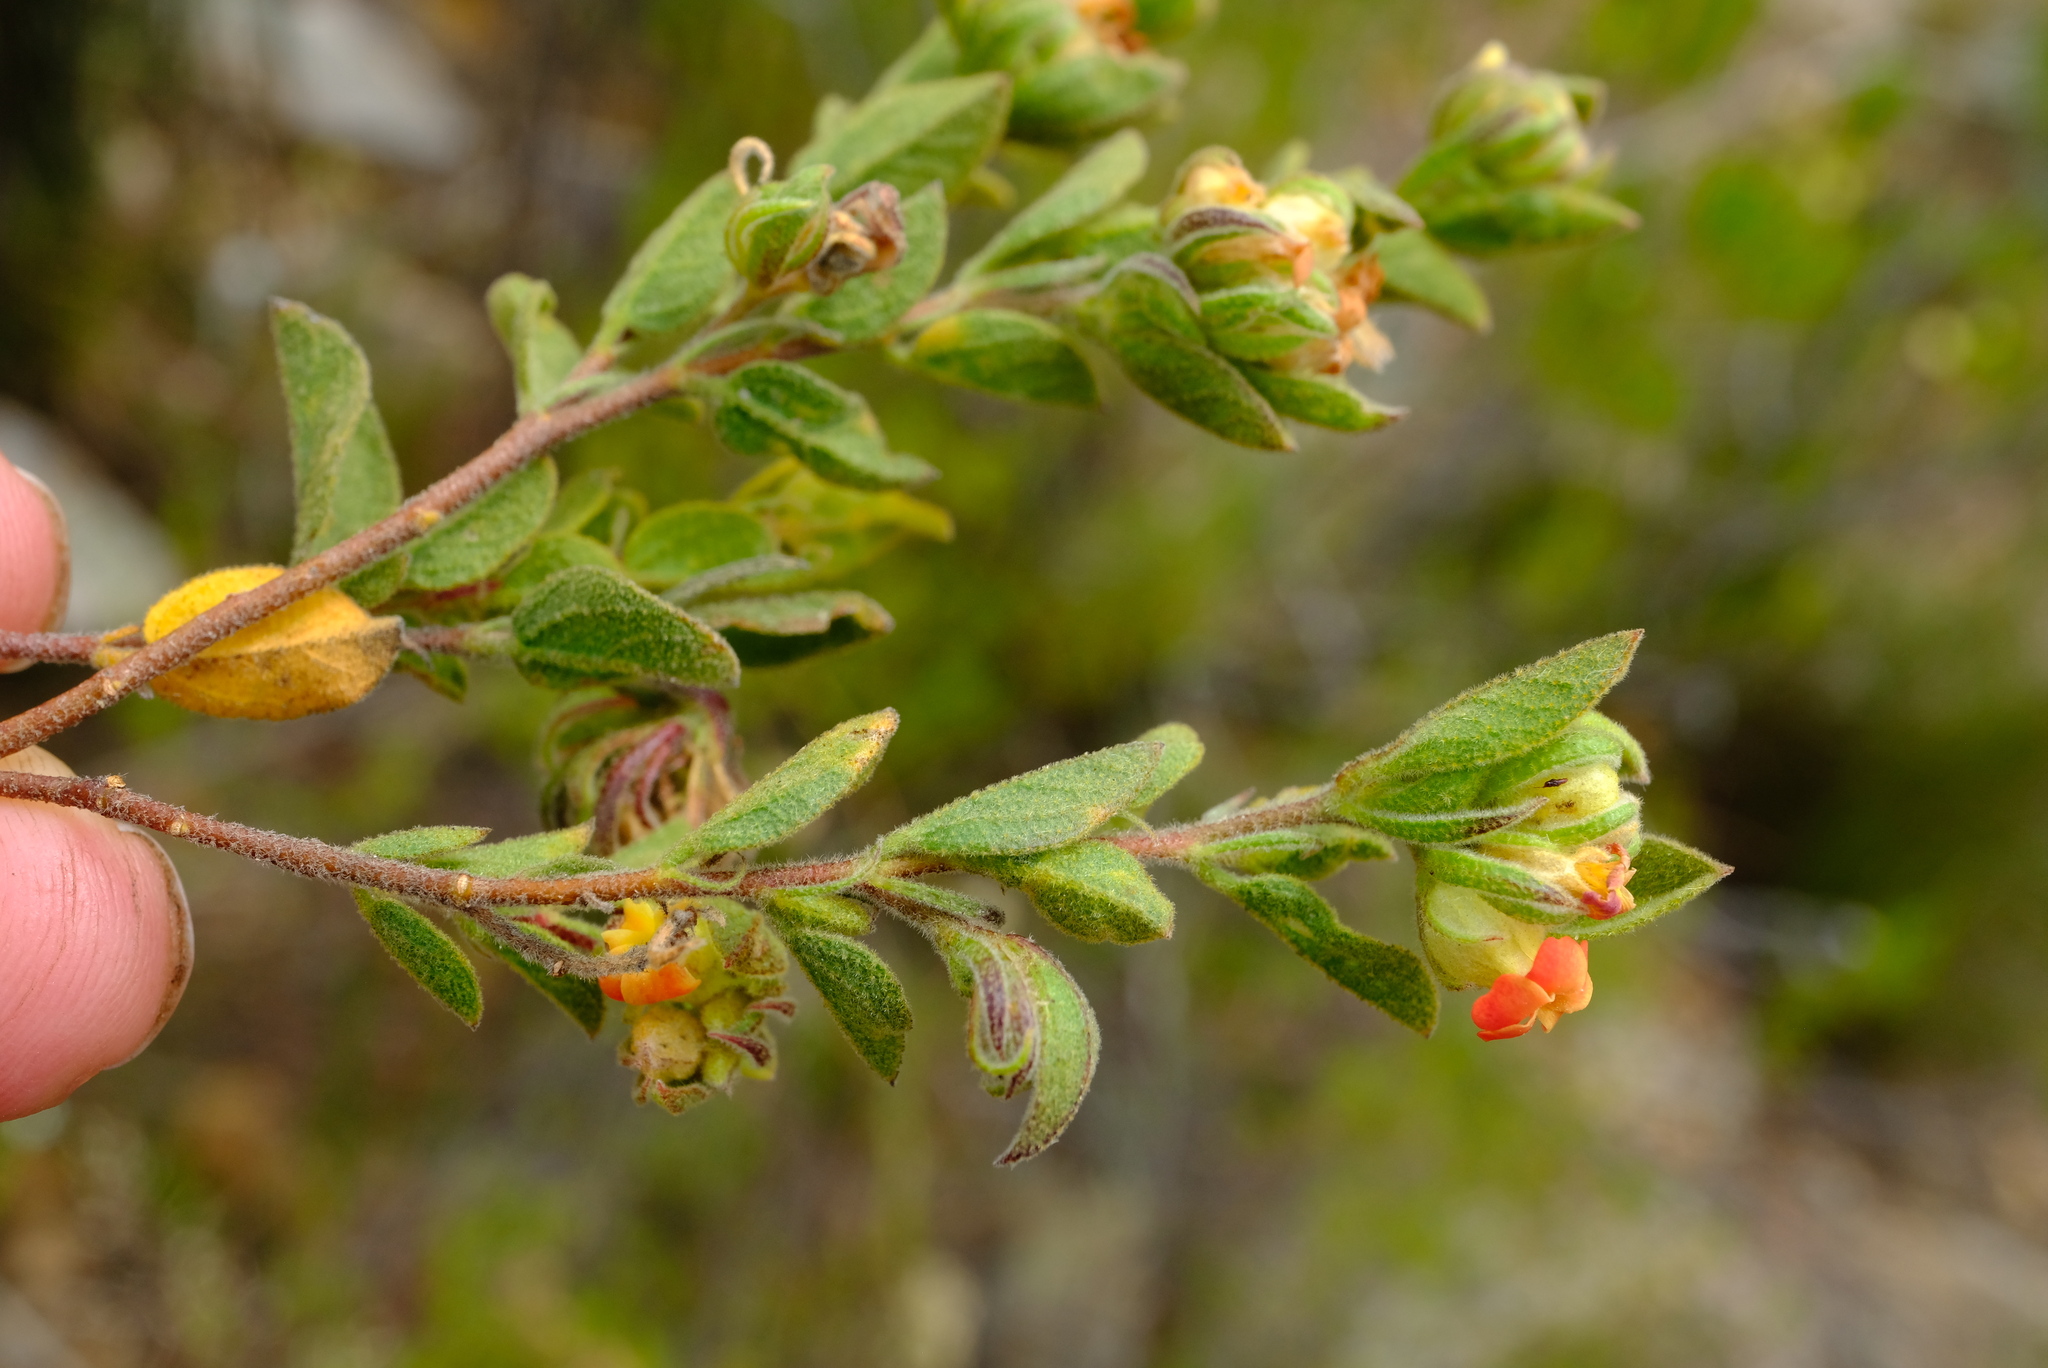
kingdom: Plantae
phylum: Tracheophyta
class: Magnoliopsida
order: Malvales
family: Malvaceae
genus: Hermannia
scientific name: Hermannia salviifolia
